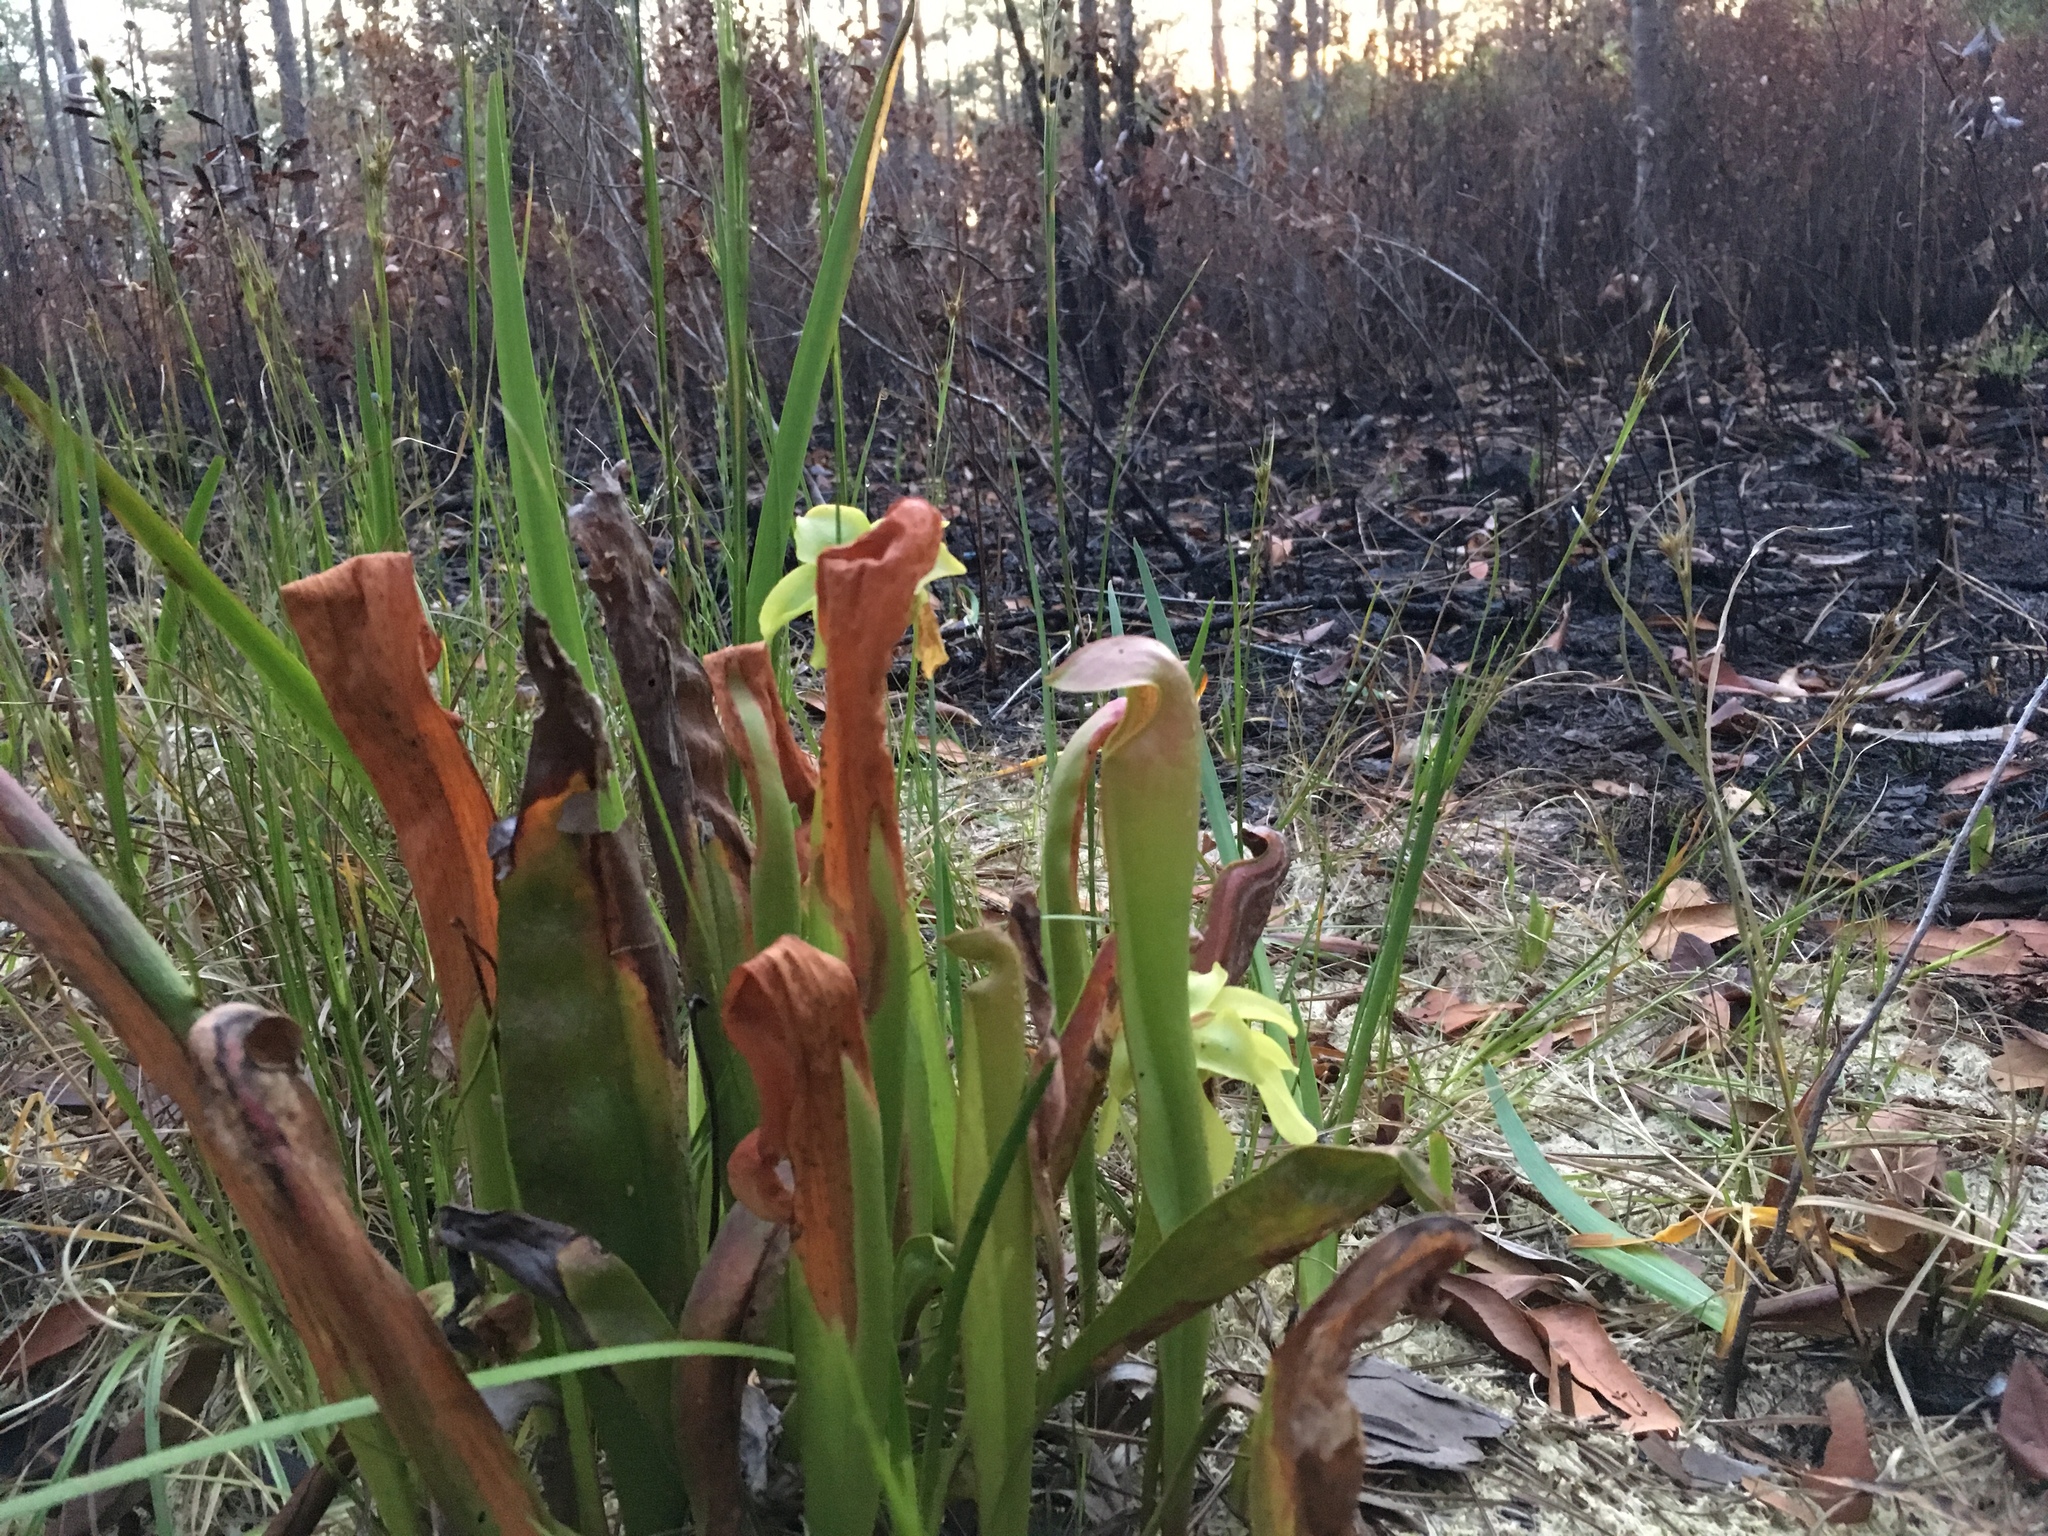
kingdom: Plantae
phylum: Tracheophyta
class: Magnoliopsida
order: Ericales
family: Sarraceniaceae
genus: Sarracenia
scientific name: Sarracenia minor
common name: Rainhat-trumpet
